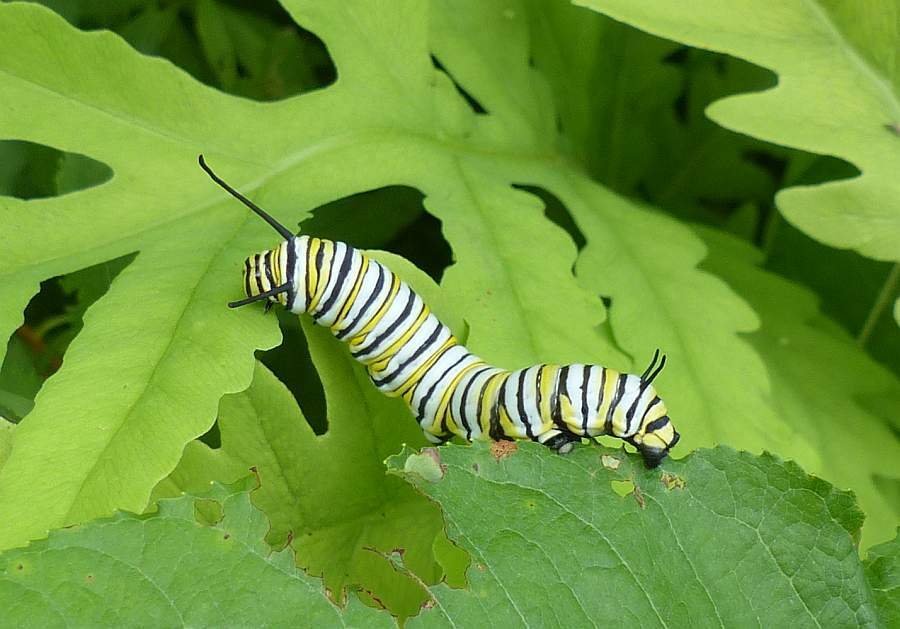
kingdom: Animalia
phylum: Arthropoda
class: Insecta
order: Lepidoptera
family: Nymphalidae
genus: Danaus
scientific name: Danaus plexippus
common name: Monarch
